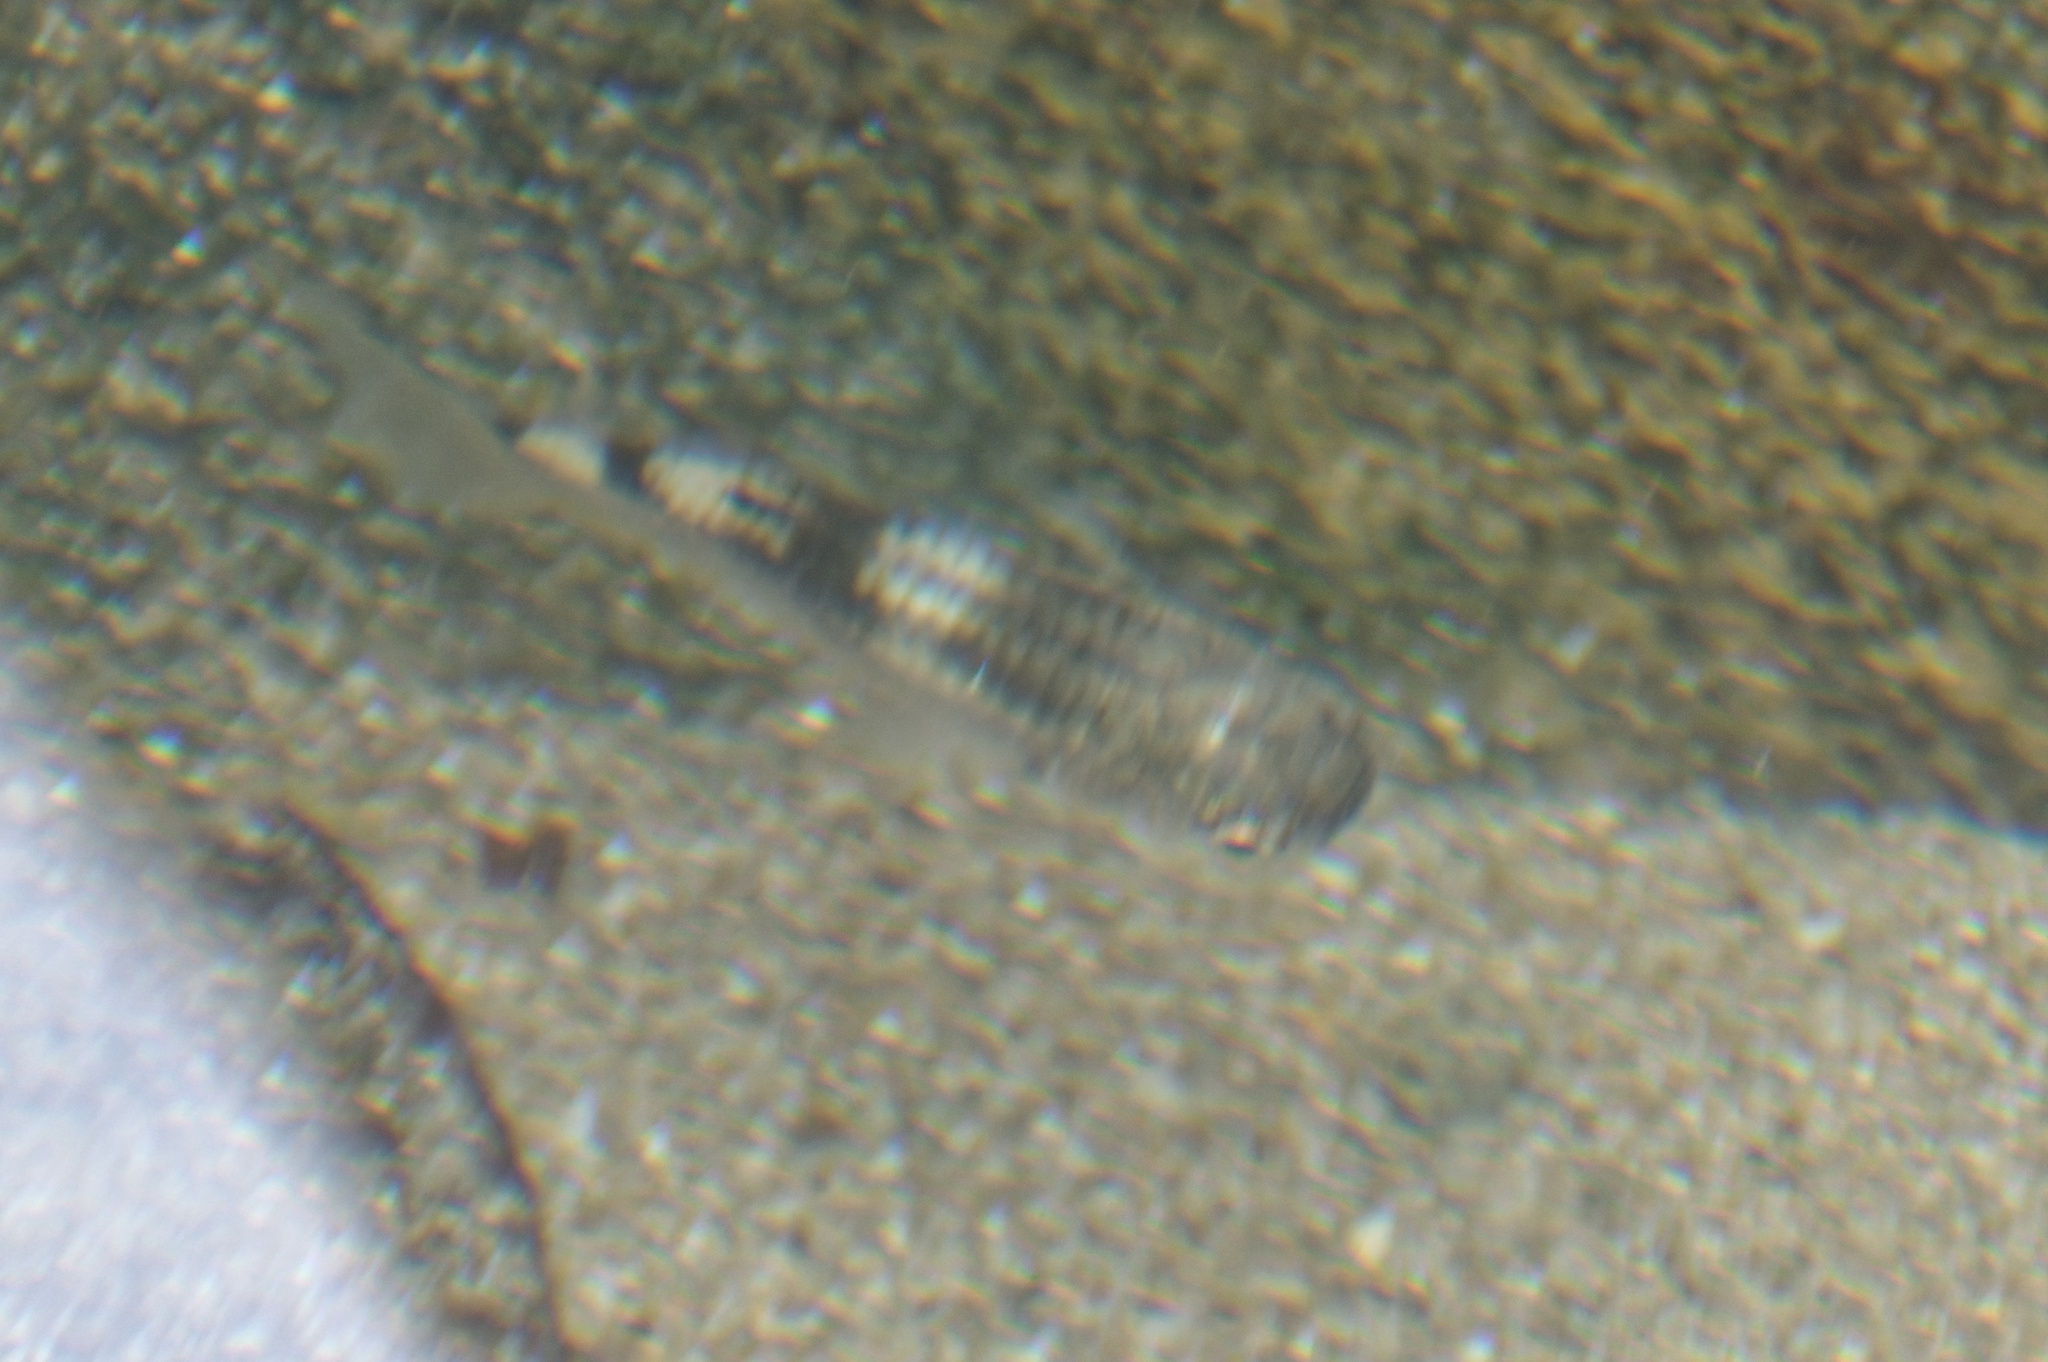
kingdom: Animalia
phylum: Chordata
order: Mugiliformes
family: Mugilidae
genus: Ellochelon
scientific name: Ellochelon vaigiensis
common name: Squaretail mullet
